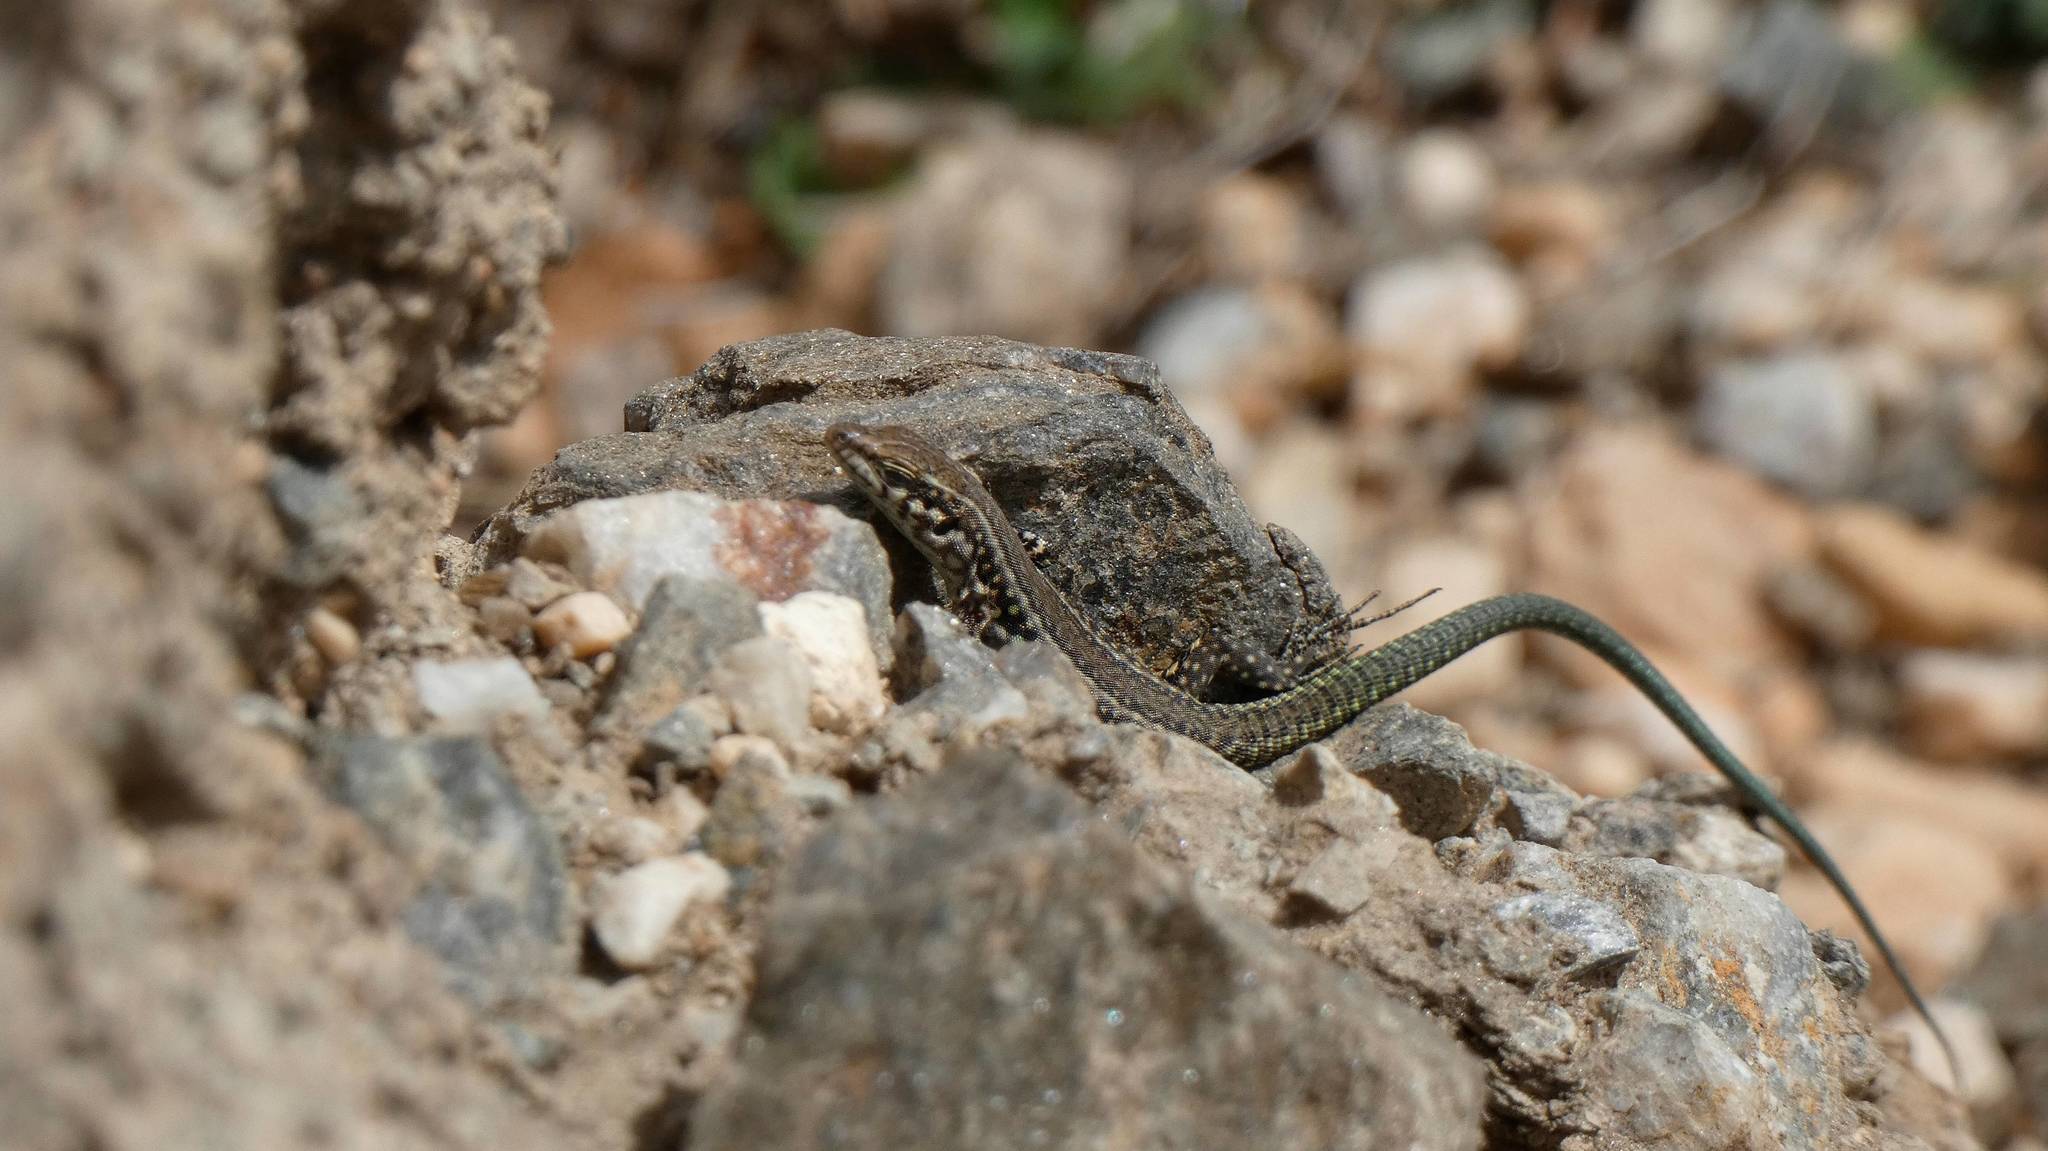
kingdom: Animalia
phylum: Chordata
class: Squamata
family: Lacertidae
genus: Podarcis
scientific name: Podarcis tiliguerta
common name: Tyrrhenian wall lizard
